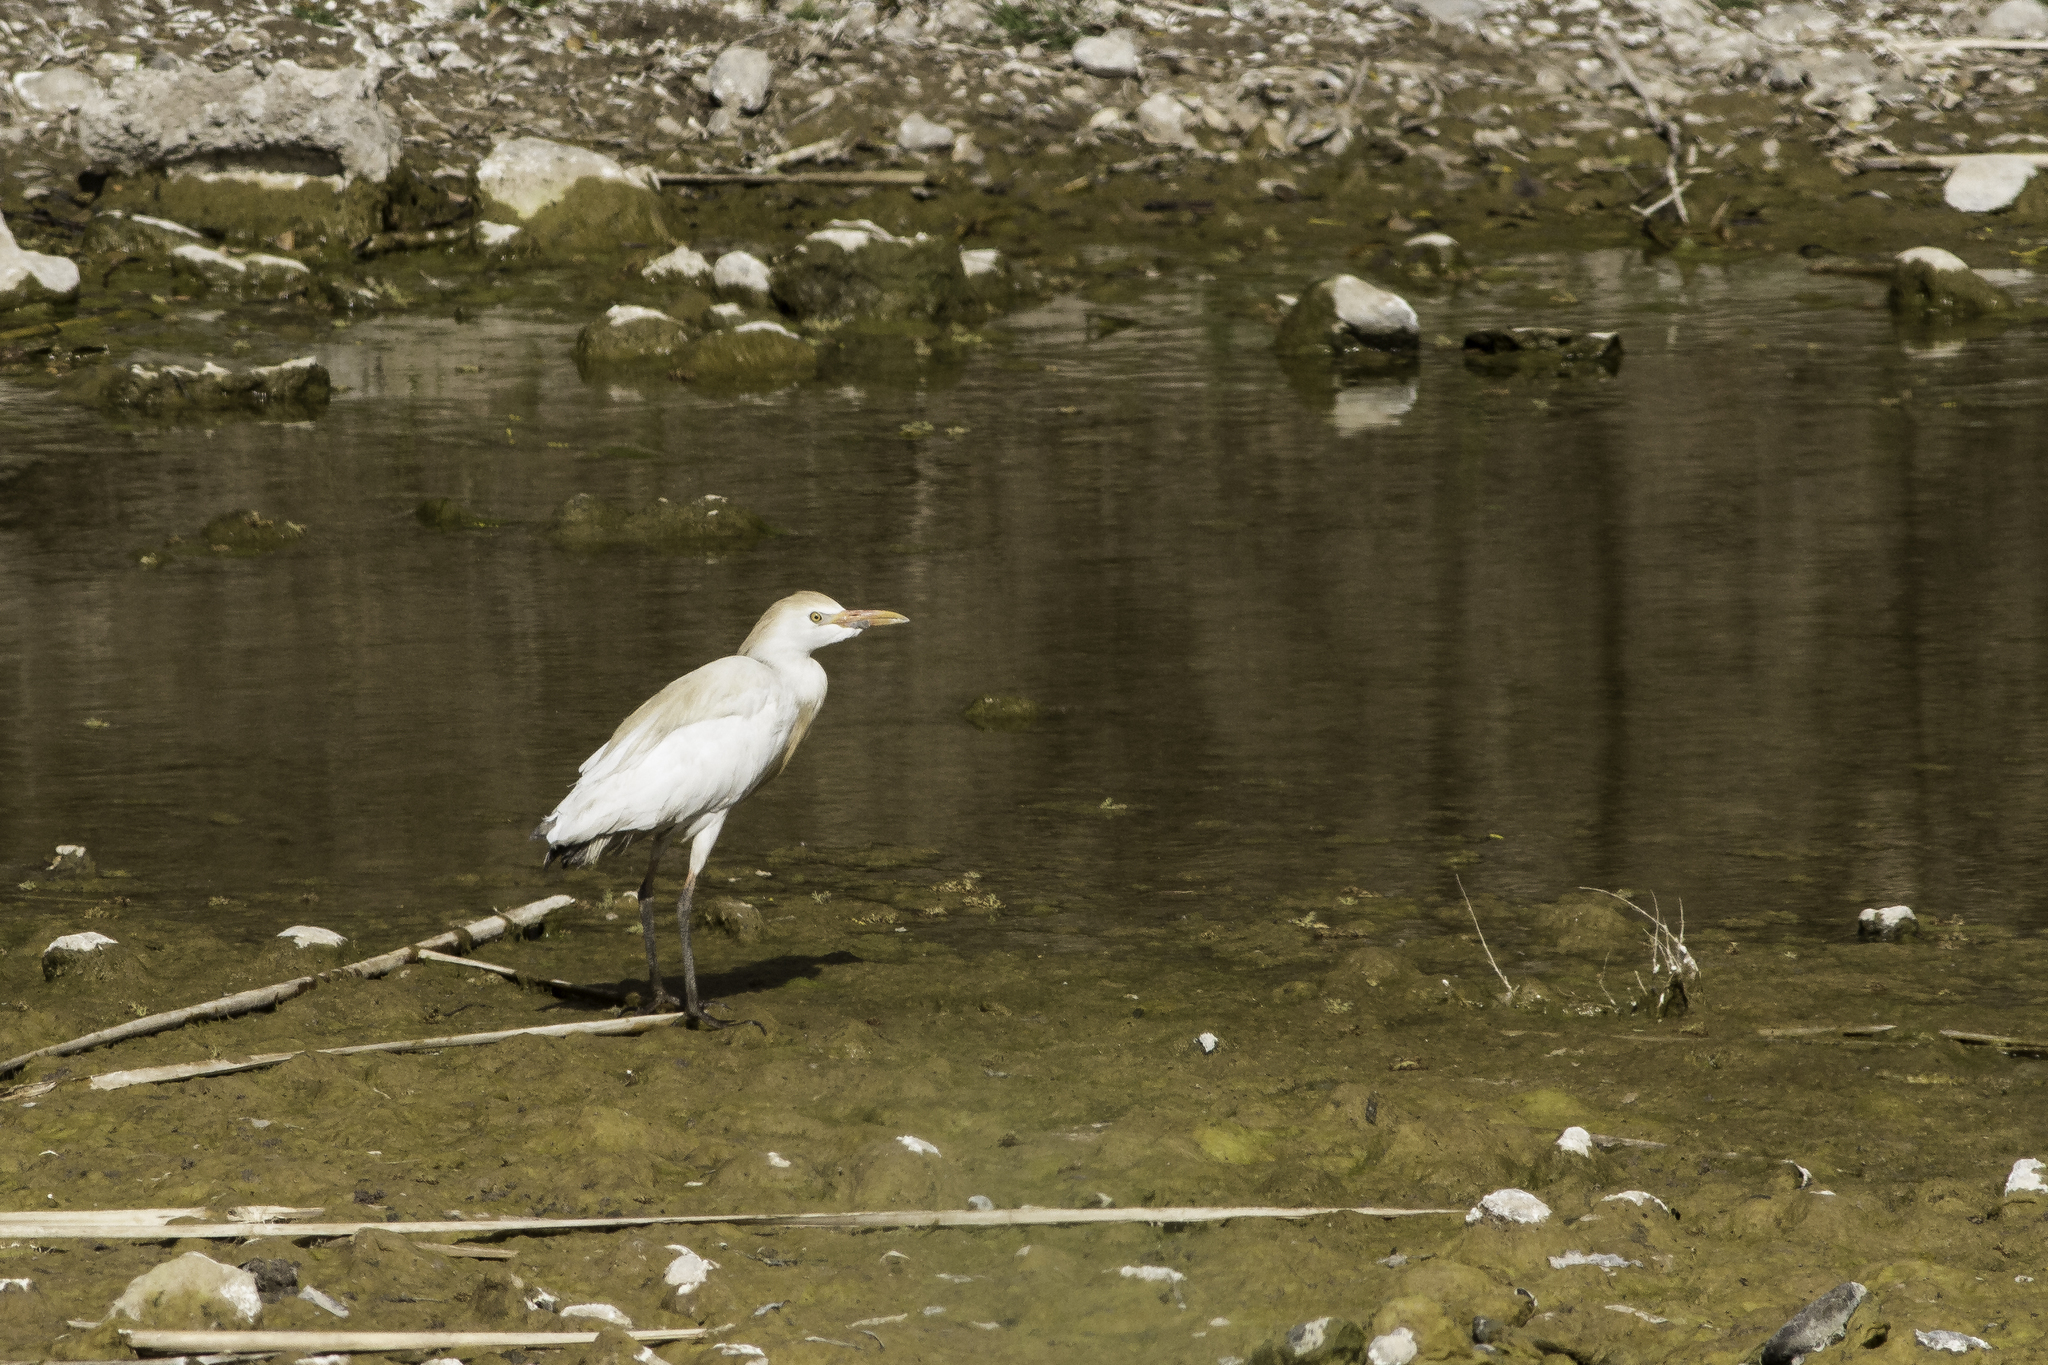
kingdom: Animalia
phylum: Chordata
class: Aves
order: Pelecaniformes
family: Ardeidae
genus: Bubulcus
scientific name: Bubulcus ibis
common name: Cattle egret
